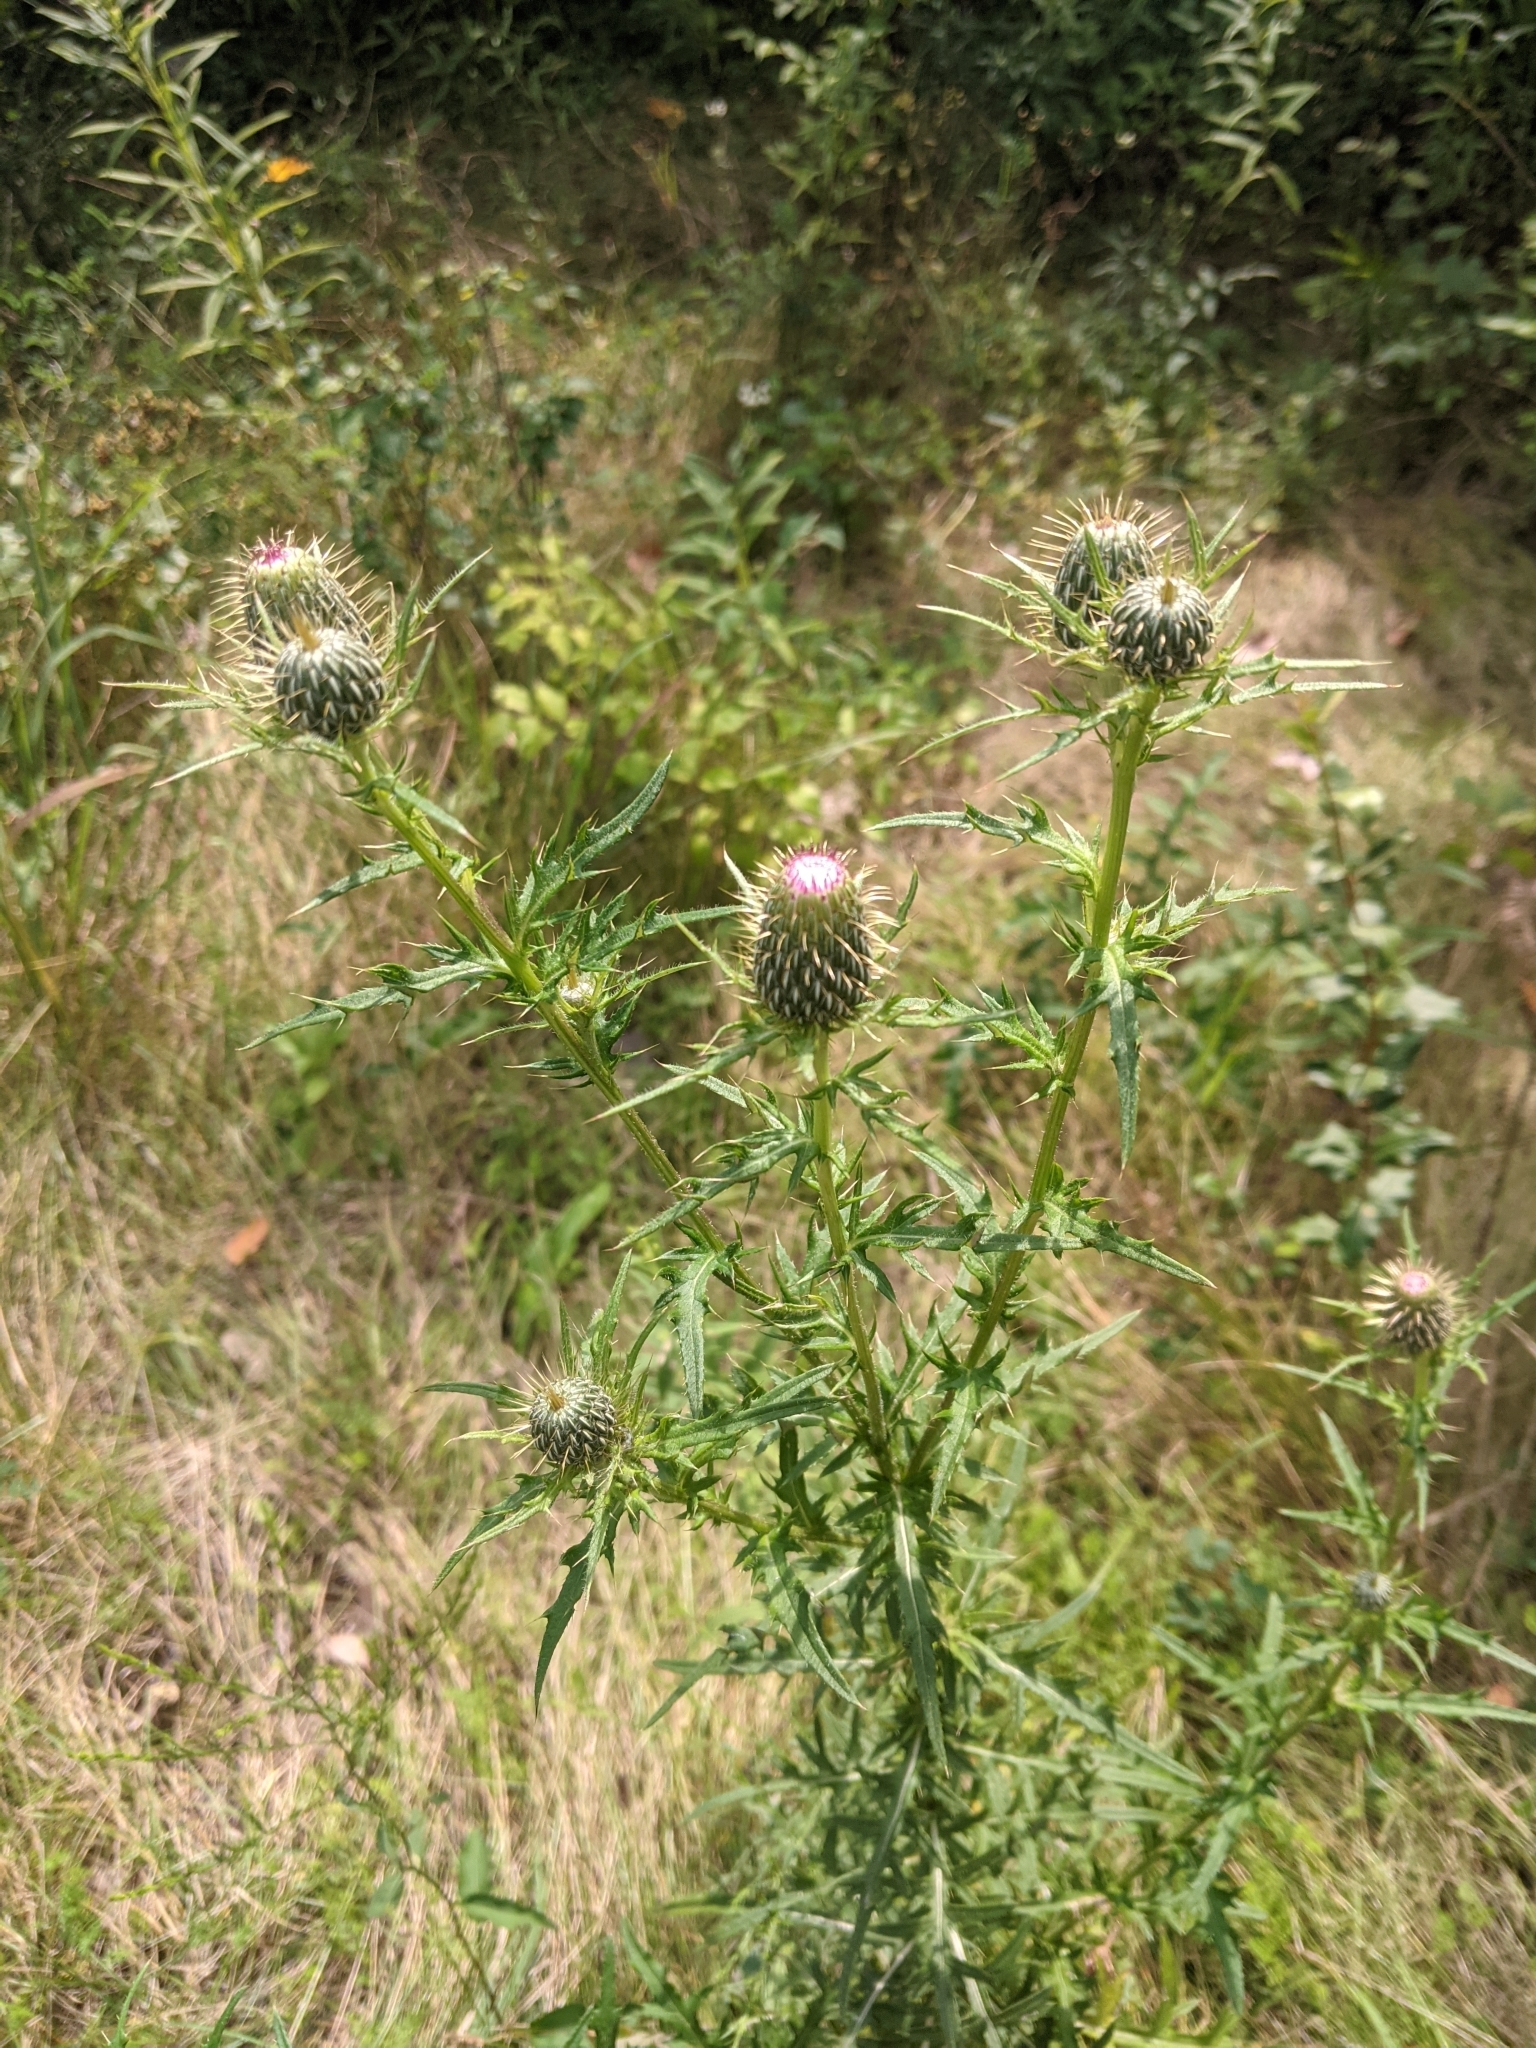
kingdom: Plantae
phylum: Tracheophyta
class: Magnoliopsida
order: Asterales
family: Asteraceae
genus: Cirsium
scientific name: Cirsium discolor
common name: Field thistle
